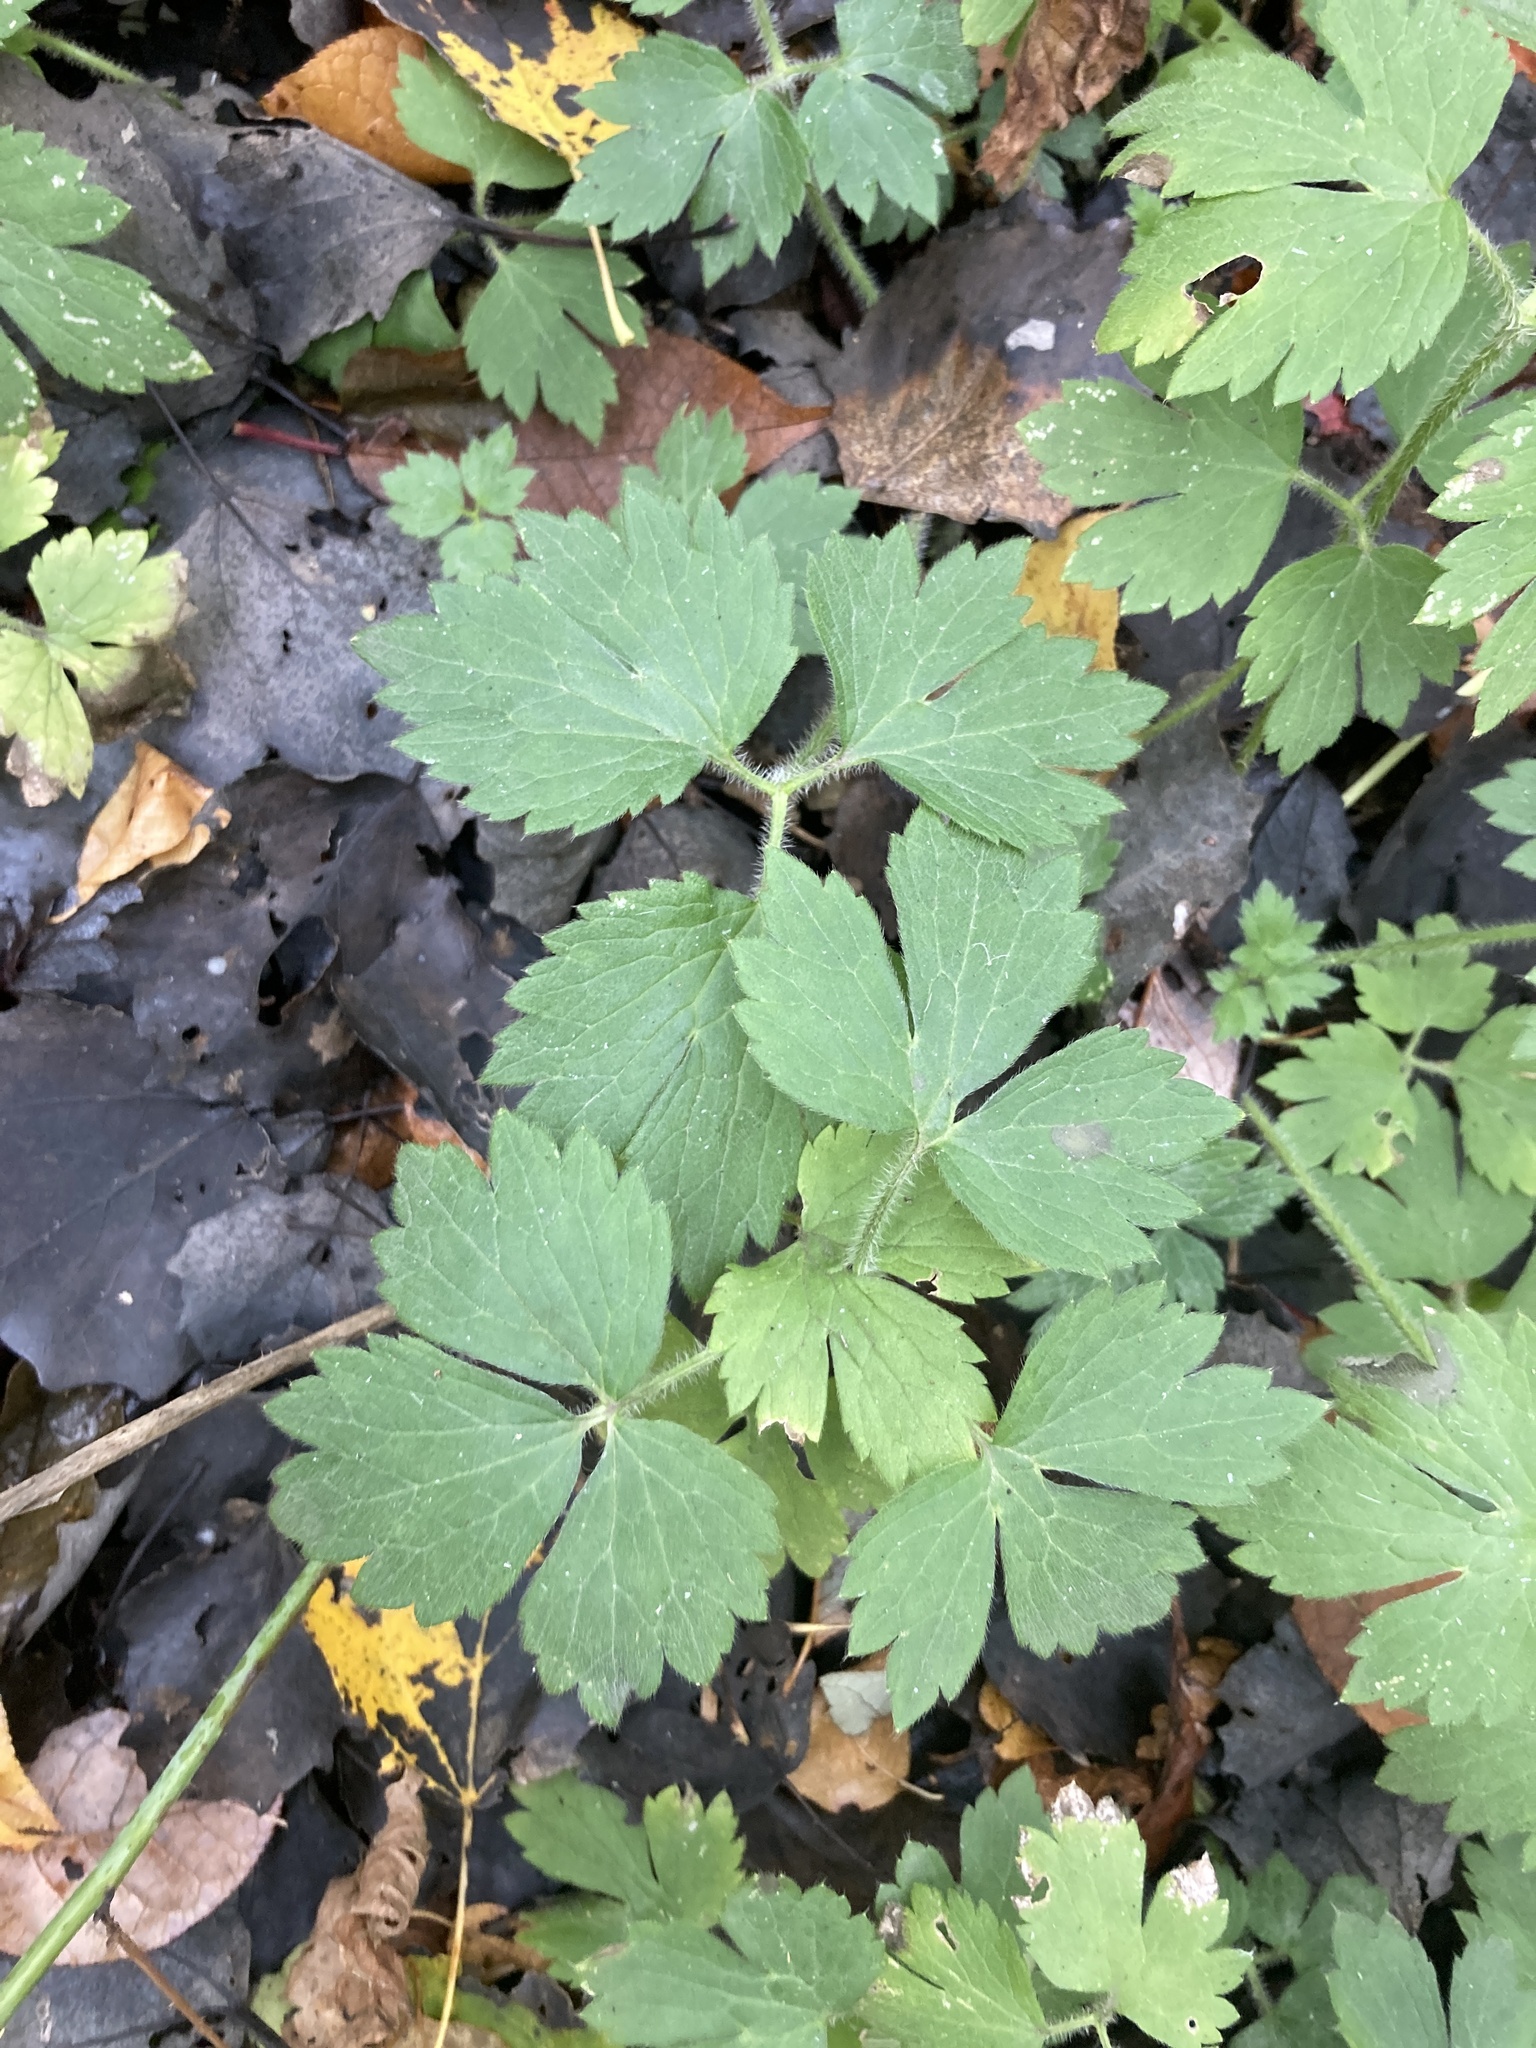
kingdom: Plantae
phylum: Tracheophyta
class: Magnoliopsida
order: Ranunculales
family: Ranunculaceae
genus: Ranunculus
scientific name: Ranunculus repens
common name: Creeping buttercup
